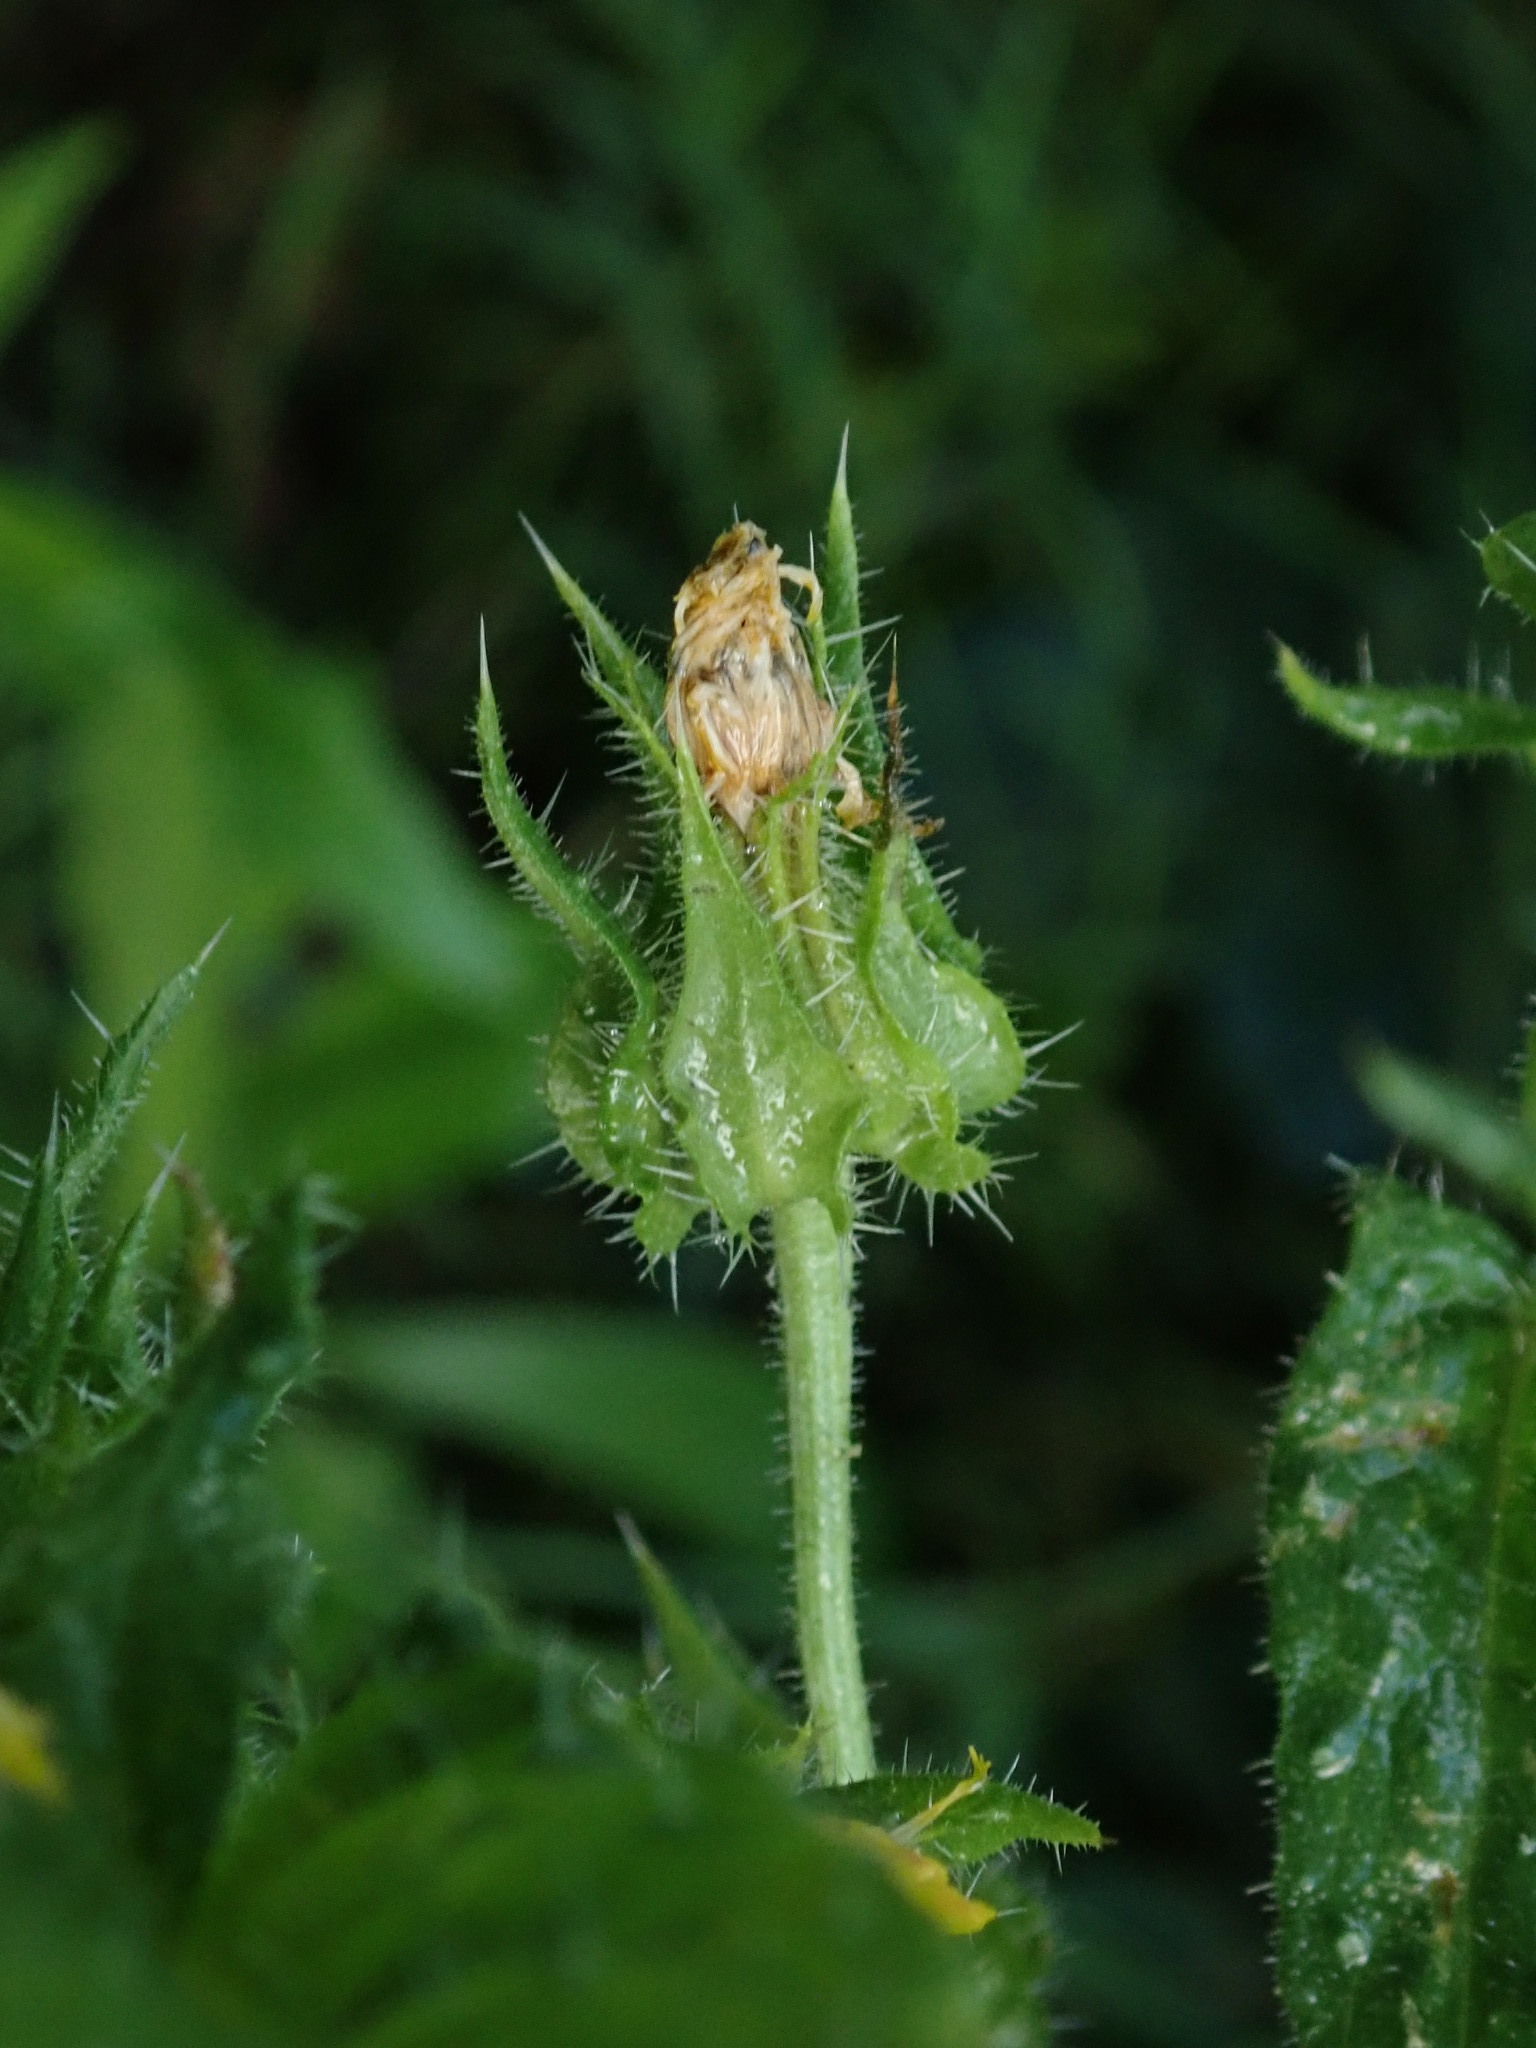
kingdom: Plantae
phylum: Tracheophyta
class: Magnoliopsida
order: Asterales
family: Asteraceae
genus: Helminthotheca
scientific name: Helminthotheca echioides
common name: Ox-tongue
